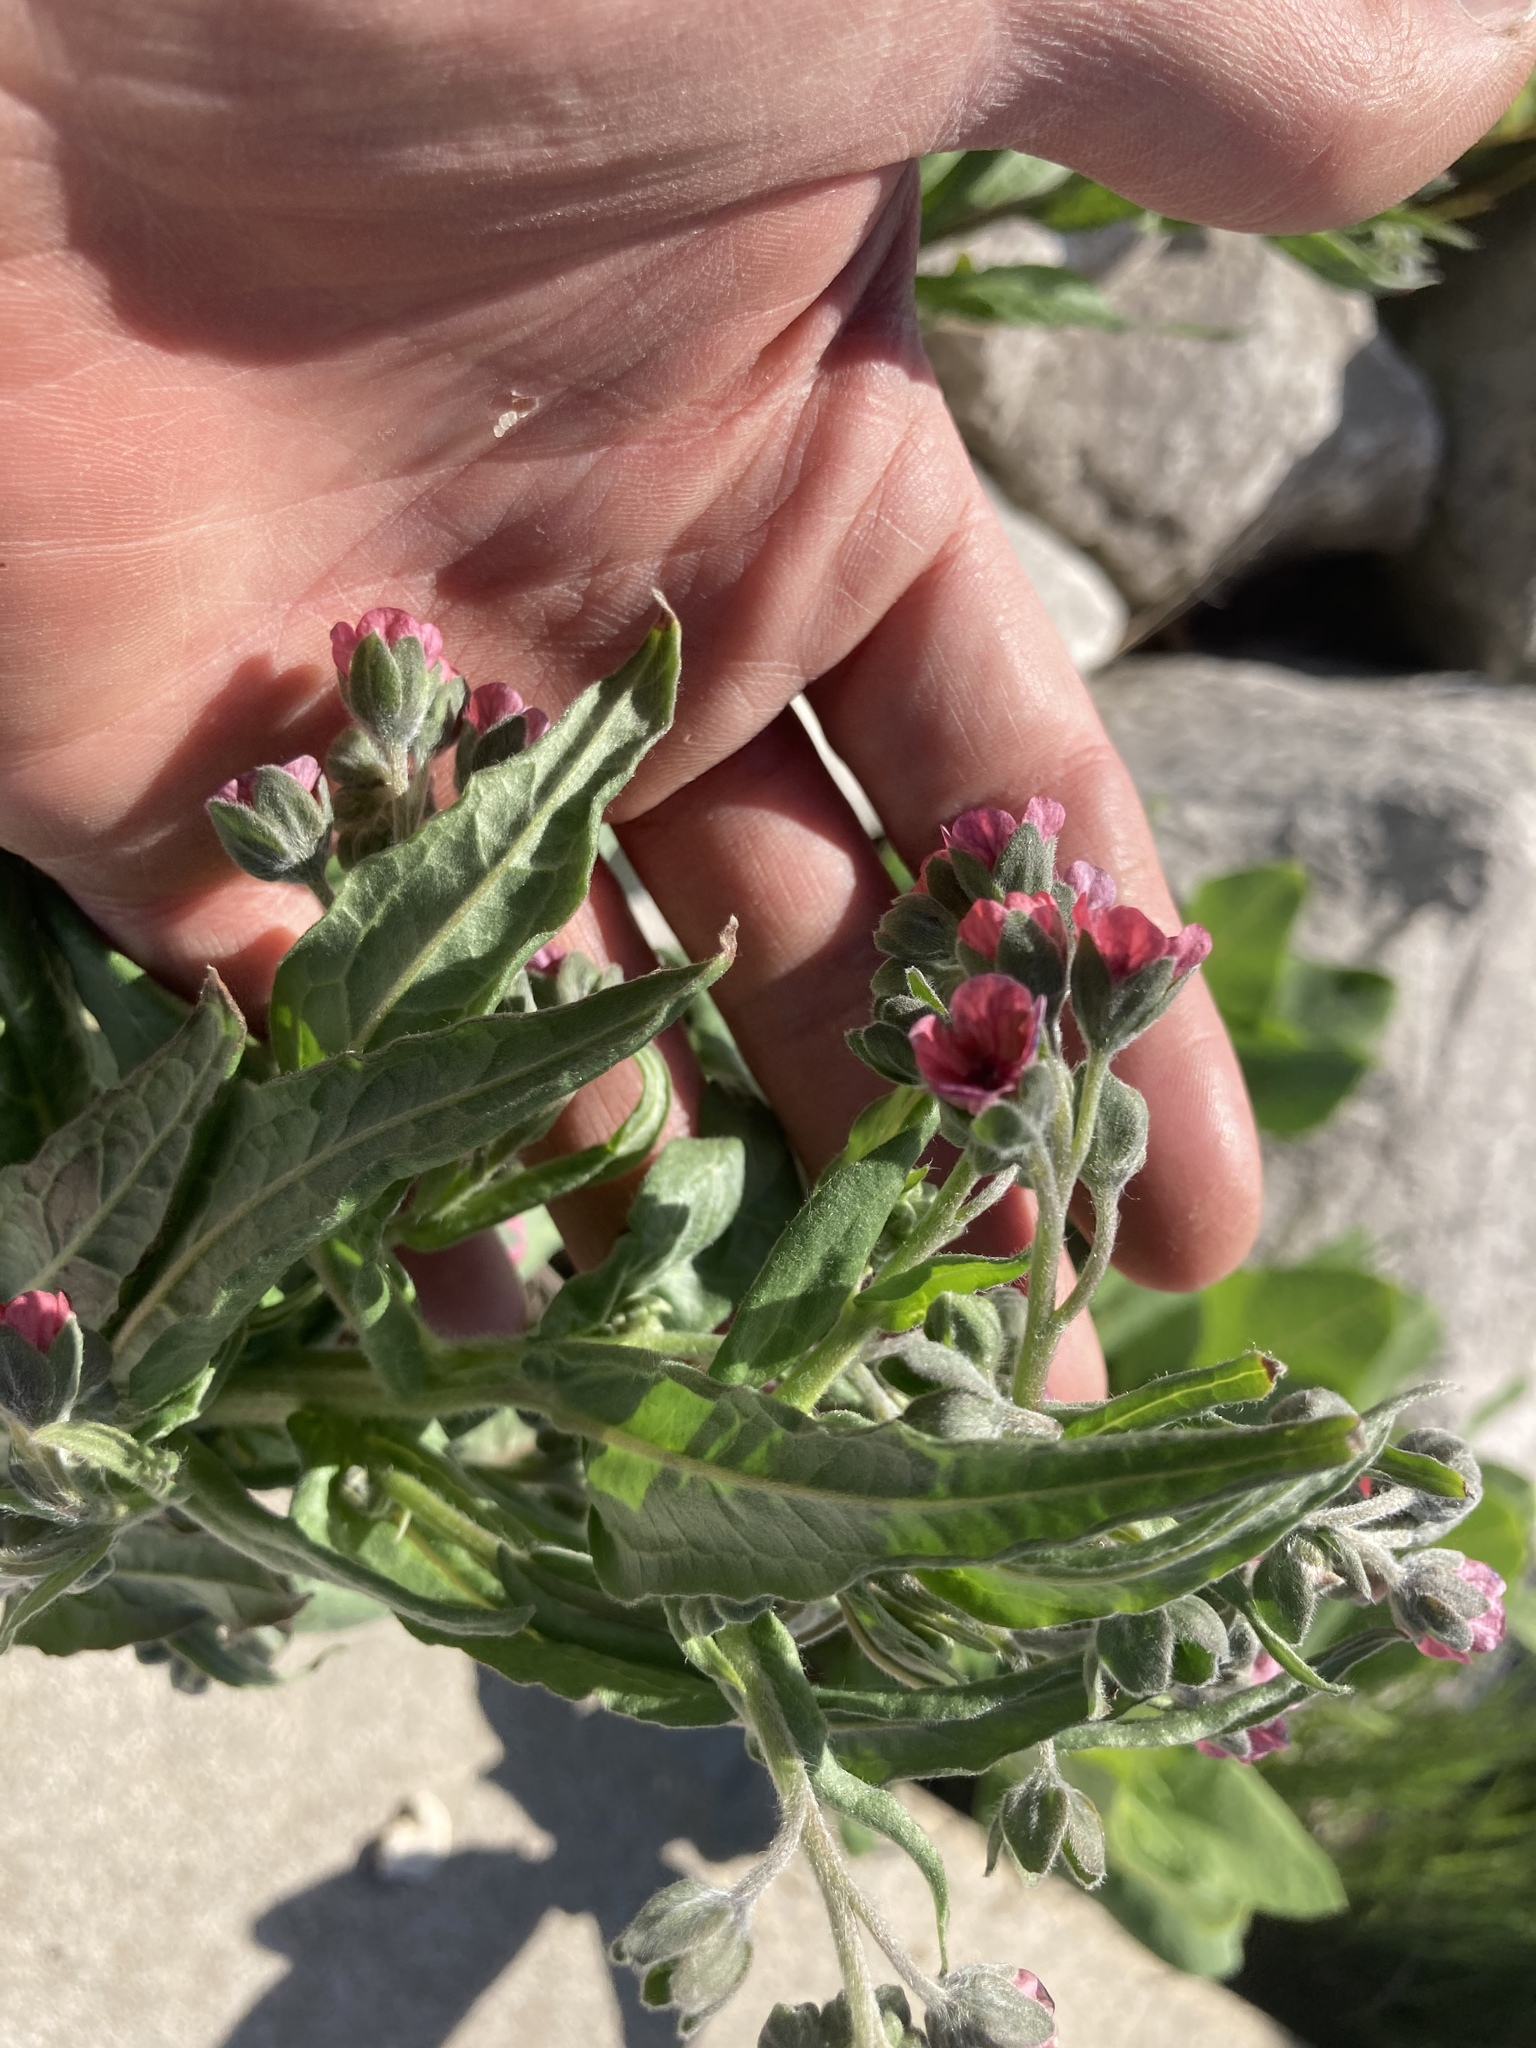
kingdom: Plantae
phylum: Tracheophyta
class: Magnoliopsida
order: Boraginales
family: Boraginaceae
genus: Cynoglossum
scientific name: Cynoglossum officinale
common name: Hound's-tongue
